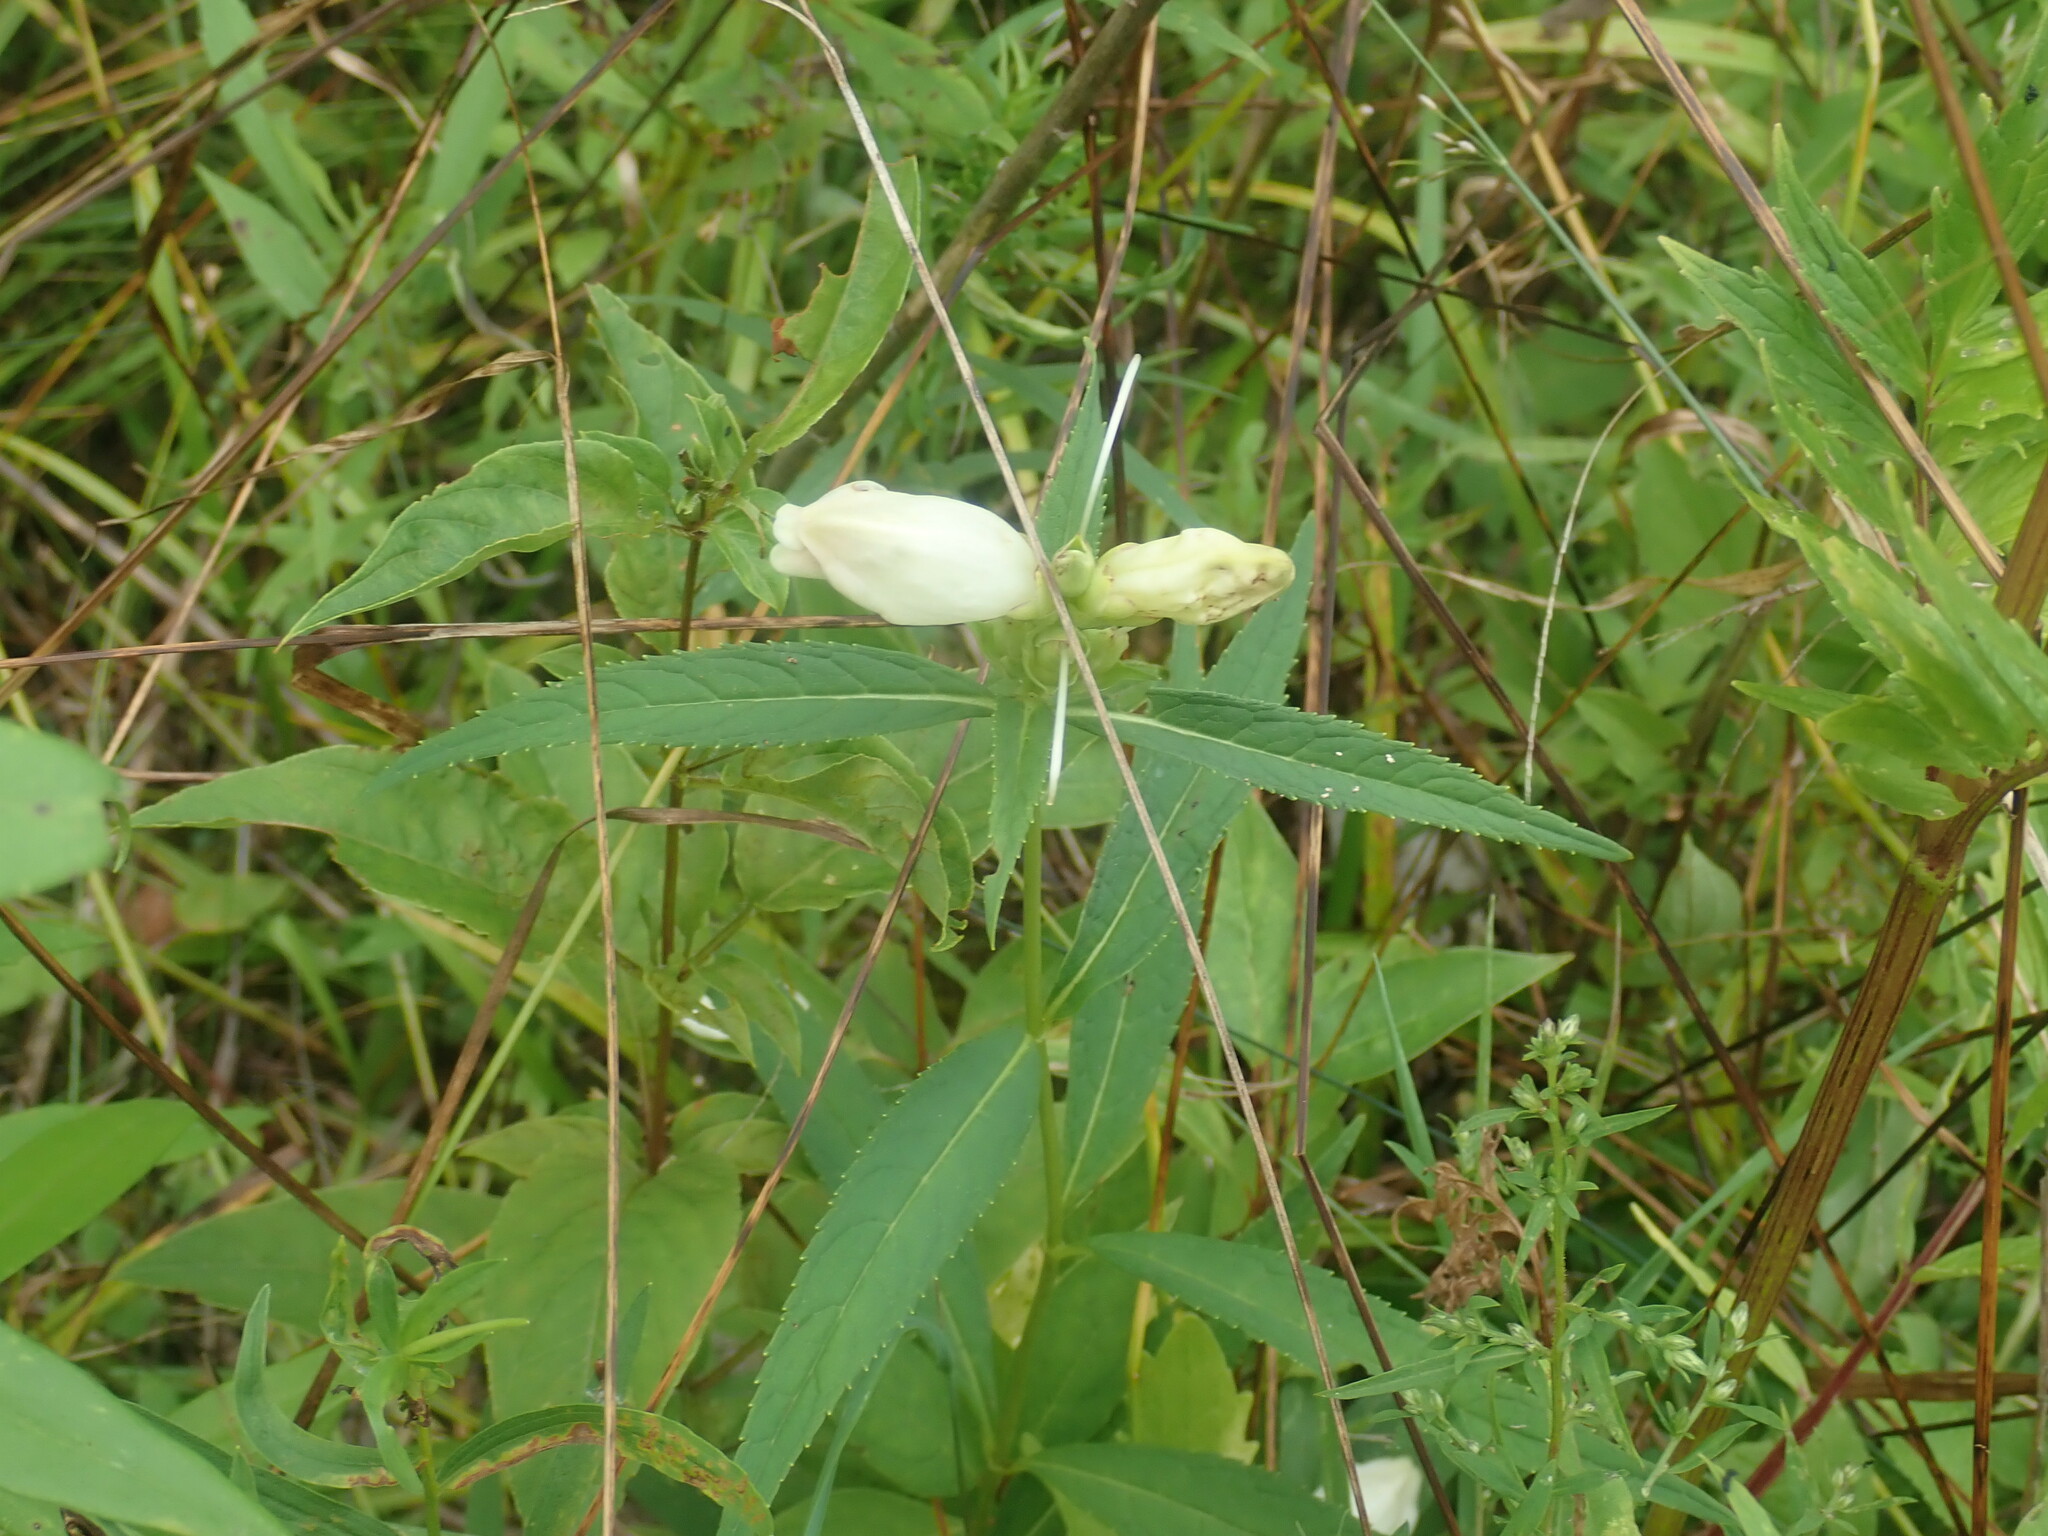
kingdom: Plantae
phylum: Tracheophyta
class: Magnoliopsida
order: Lamiales
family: Plantaginaceae
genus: Chelone
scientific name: Chelone glabra
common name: Snakehead
